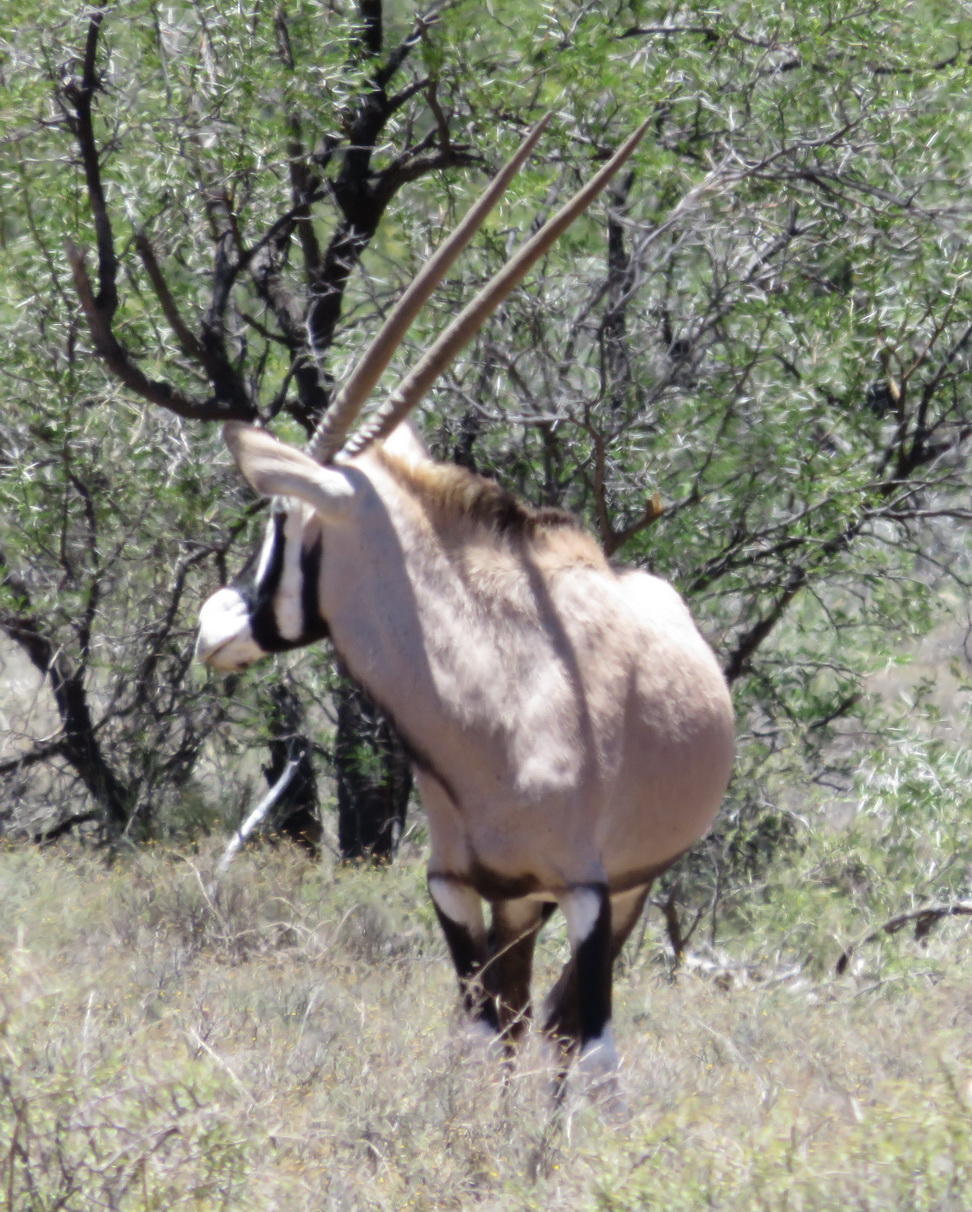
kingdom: Animalia
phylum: Chordata
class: Mammalia
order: Artiodactyla
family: Bovidae
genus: Oryx
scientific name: Oryx gazella
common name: Gemsbok
